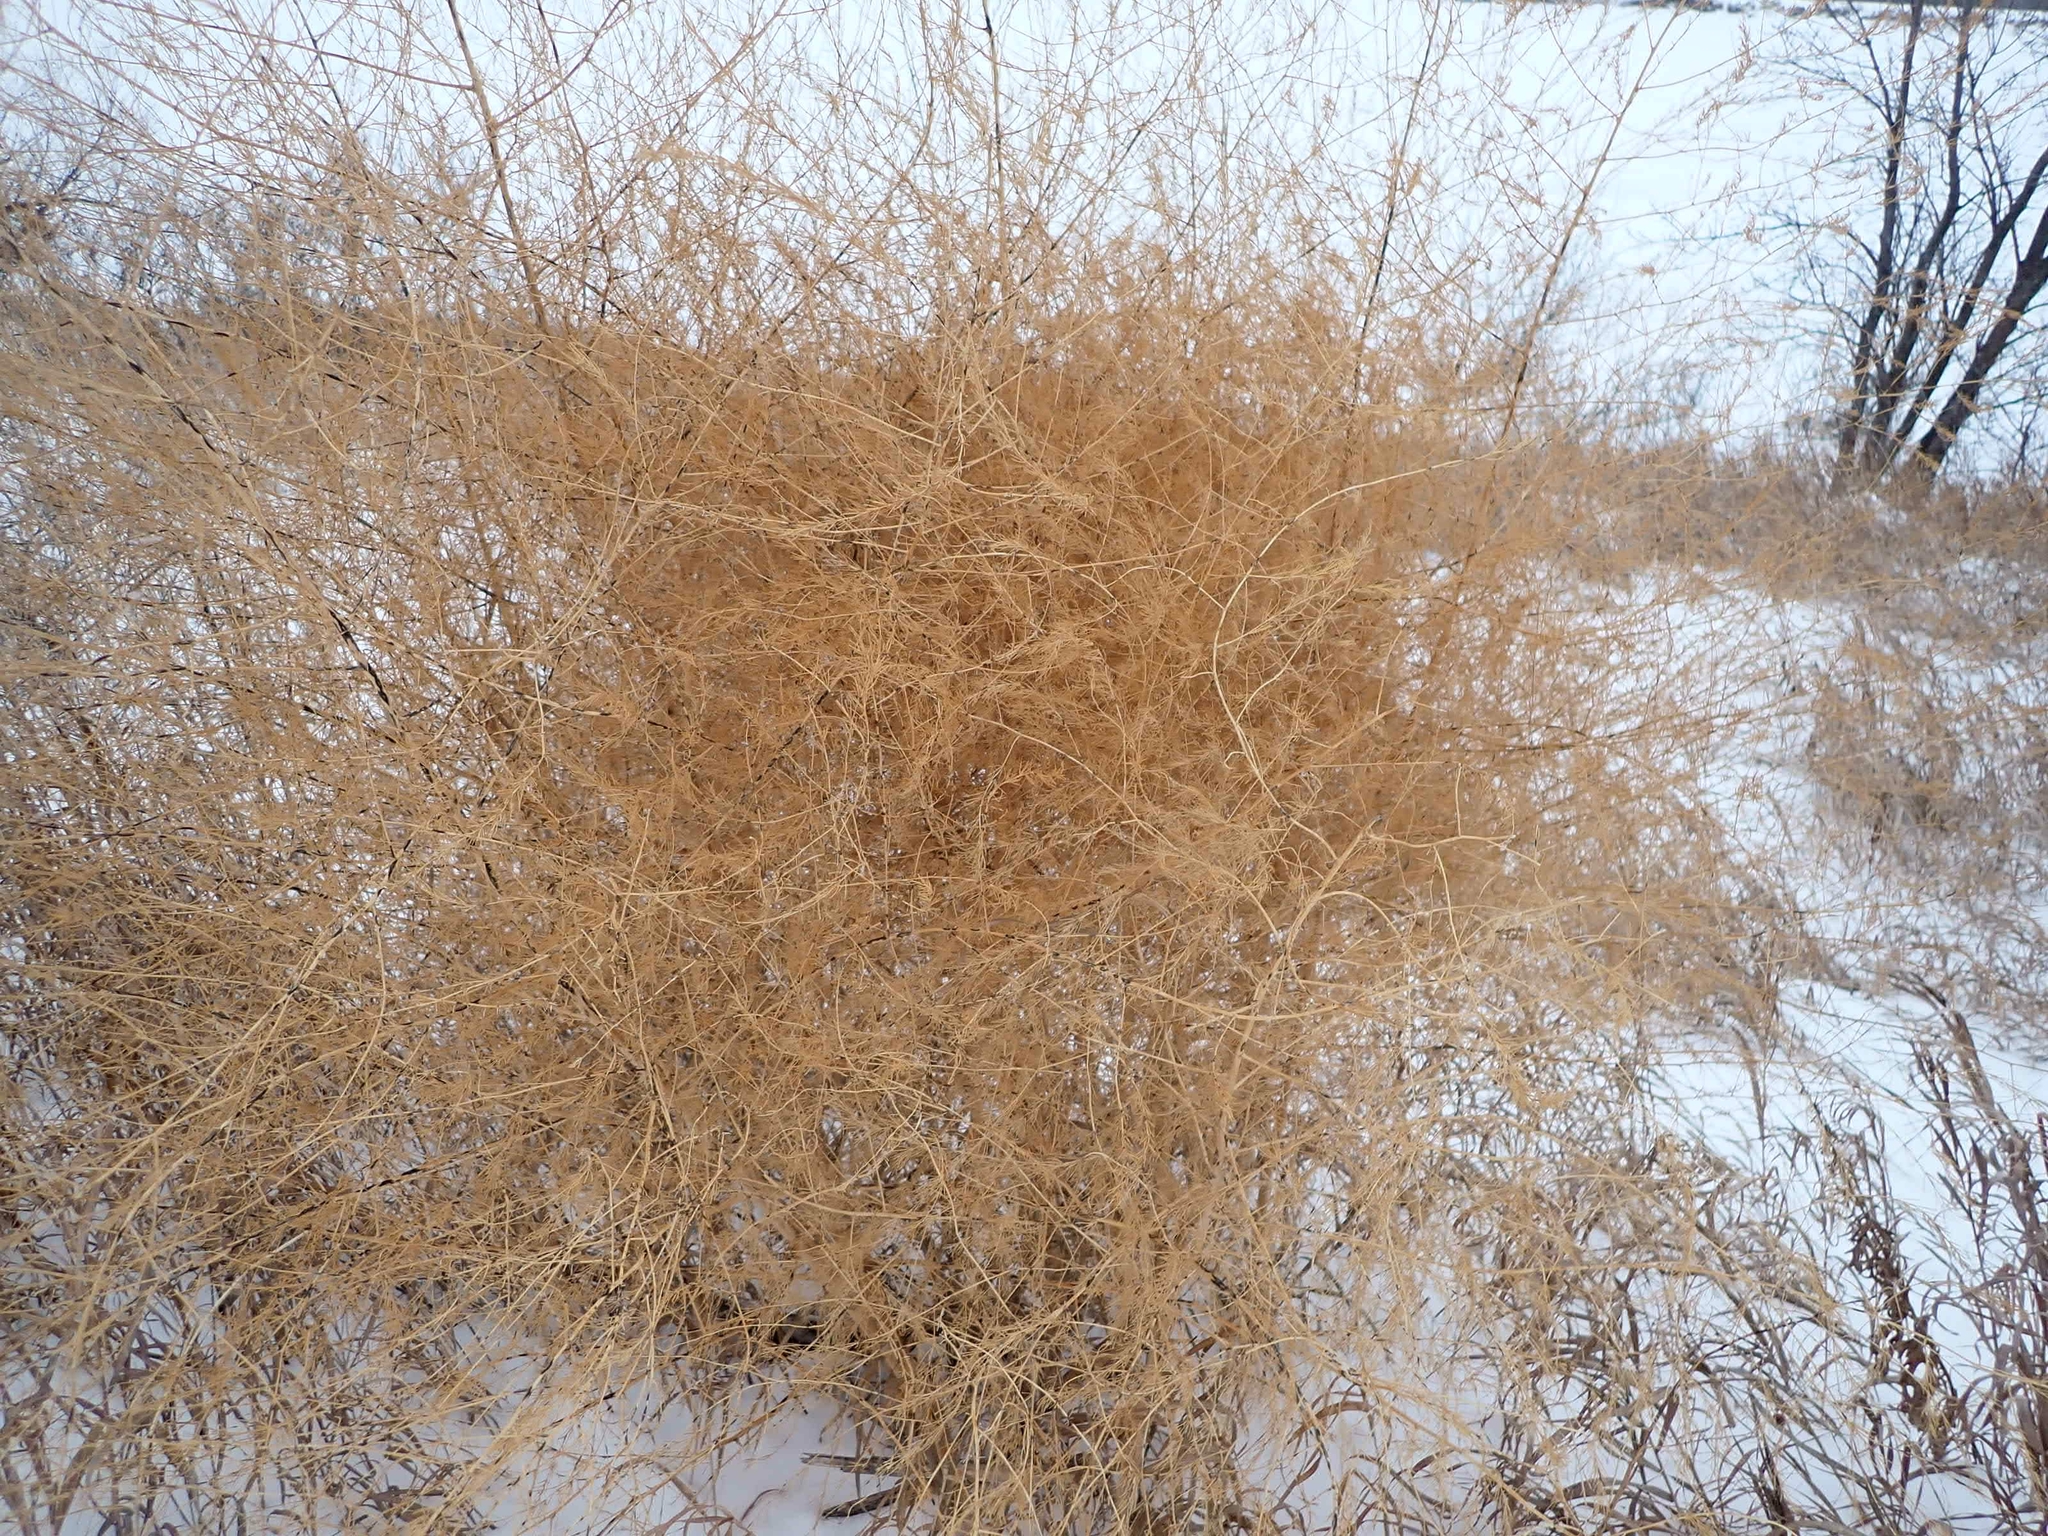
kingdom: Plantae
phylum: Tracheophyta
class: Liliopsida
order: Asparagales
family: Asparagaceae
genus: Asparagus
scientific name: Asparagus officinalis
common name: Garden asparagus
